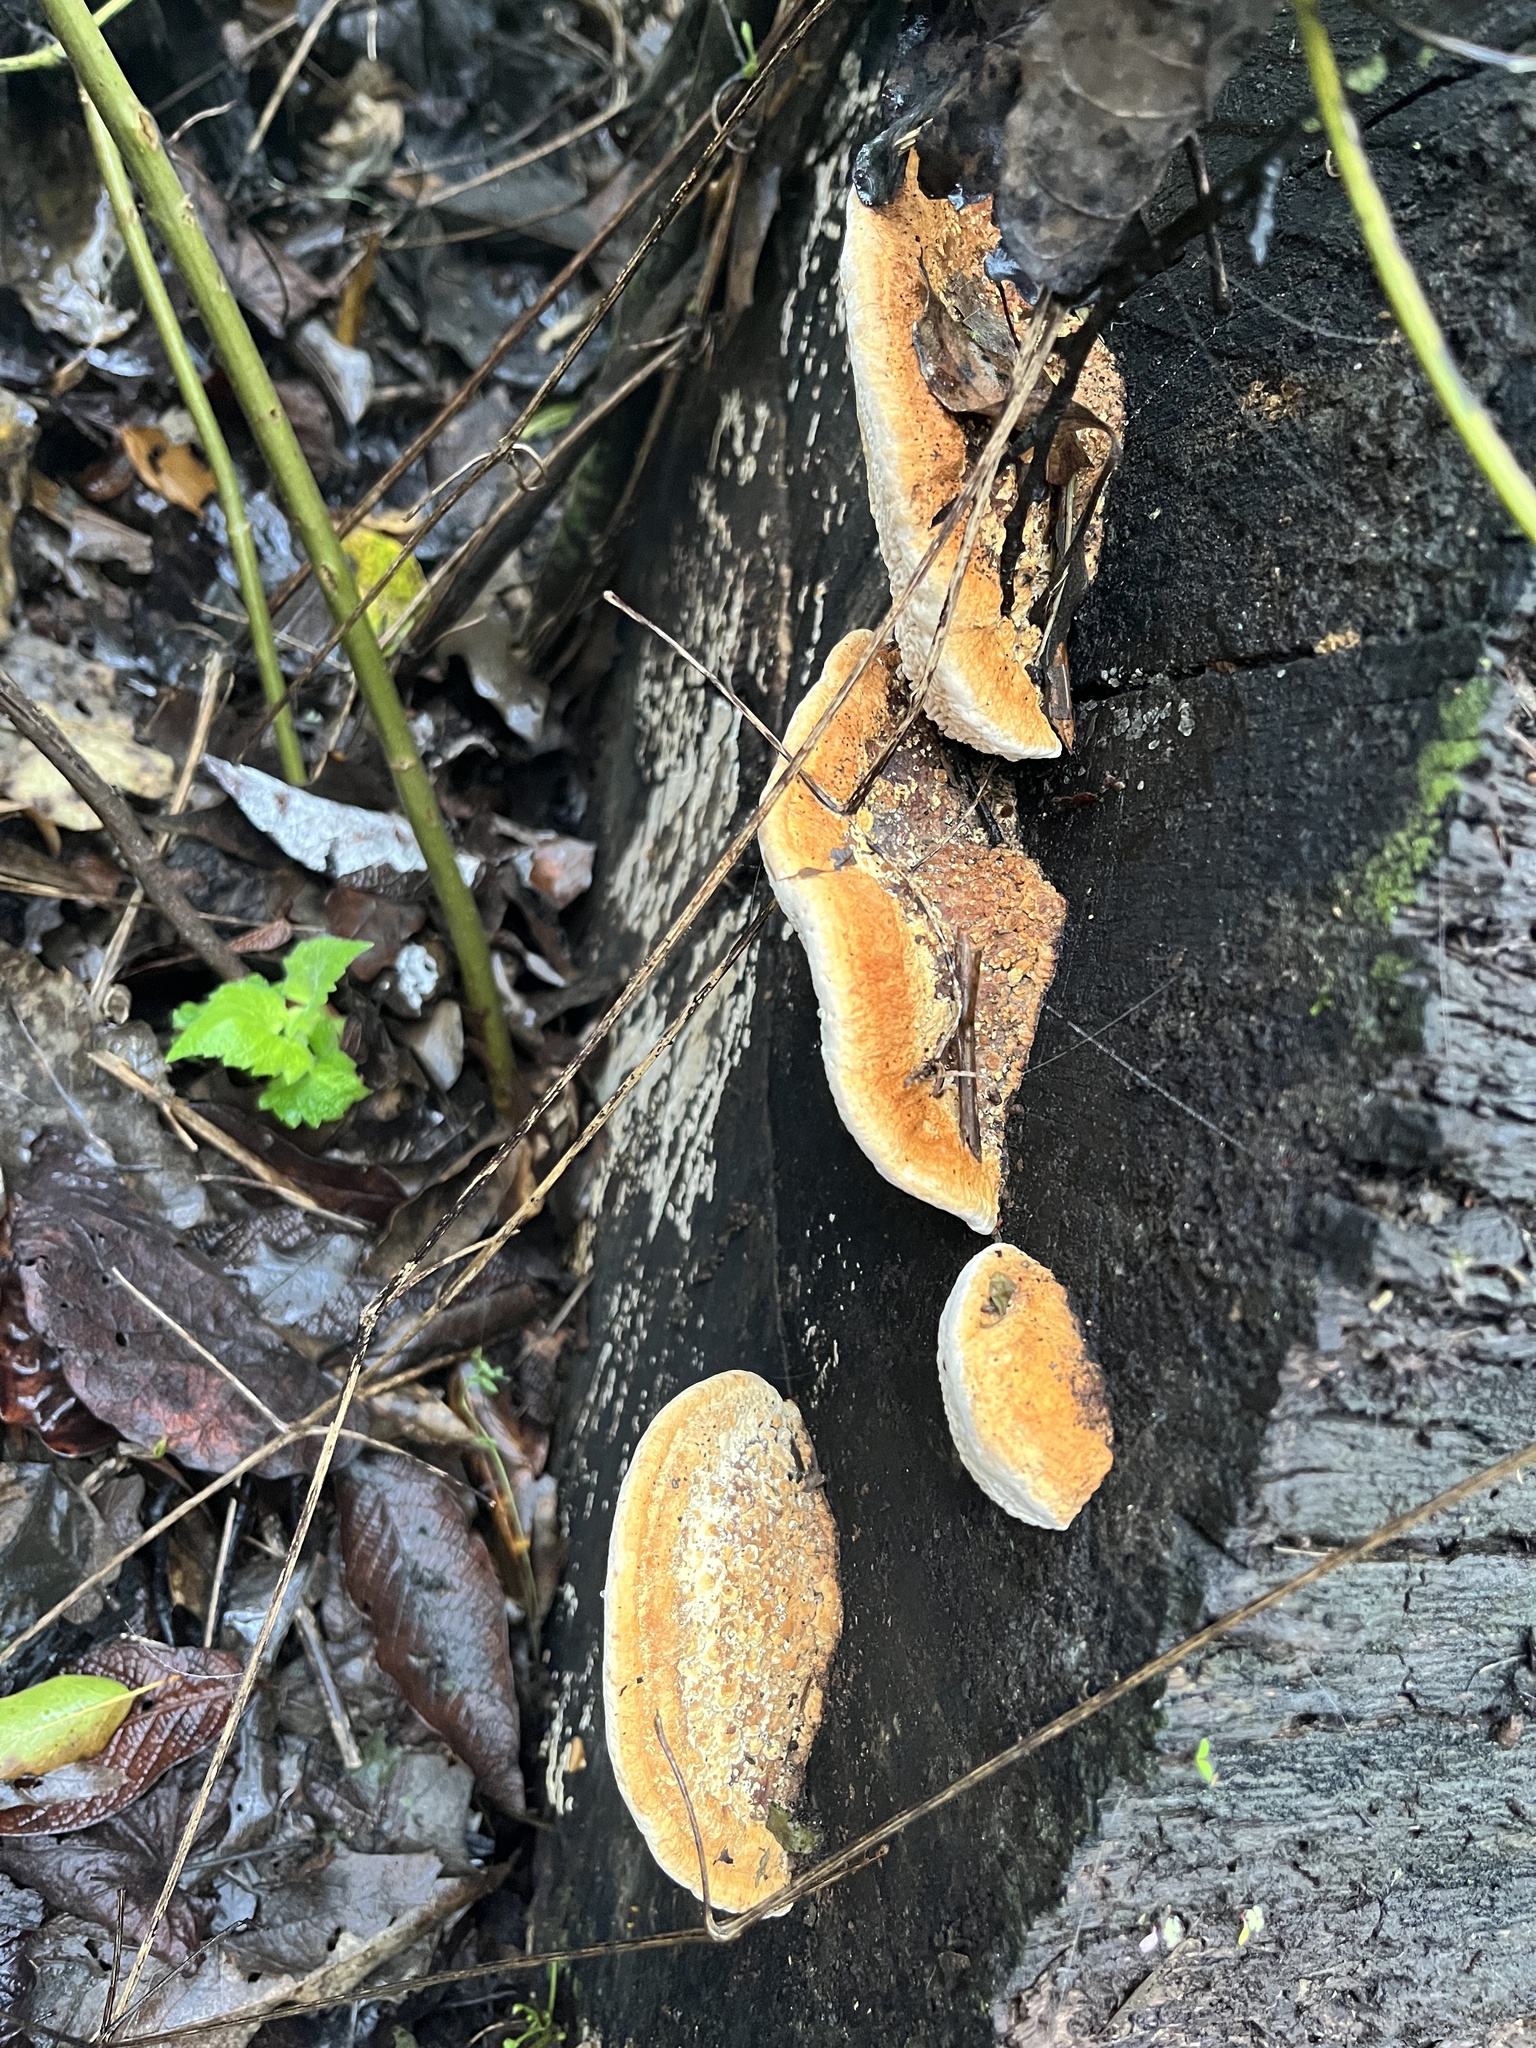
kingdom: Fungi
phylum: Basidiomycota
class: Agaricomycetes
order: Gloeophyllales
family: Gloeophyllaceae
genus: Gloeophyllum
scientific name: Gloeophyllum sepiarium
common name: Conifer mazegill
